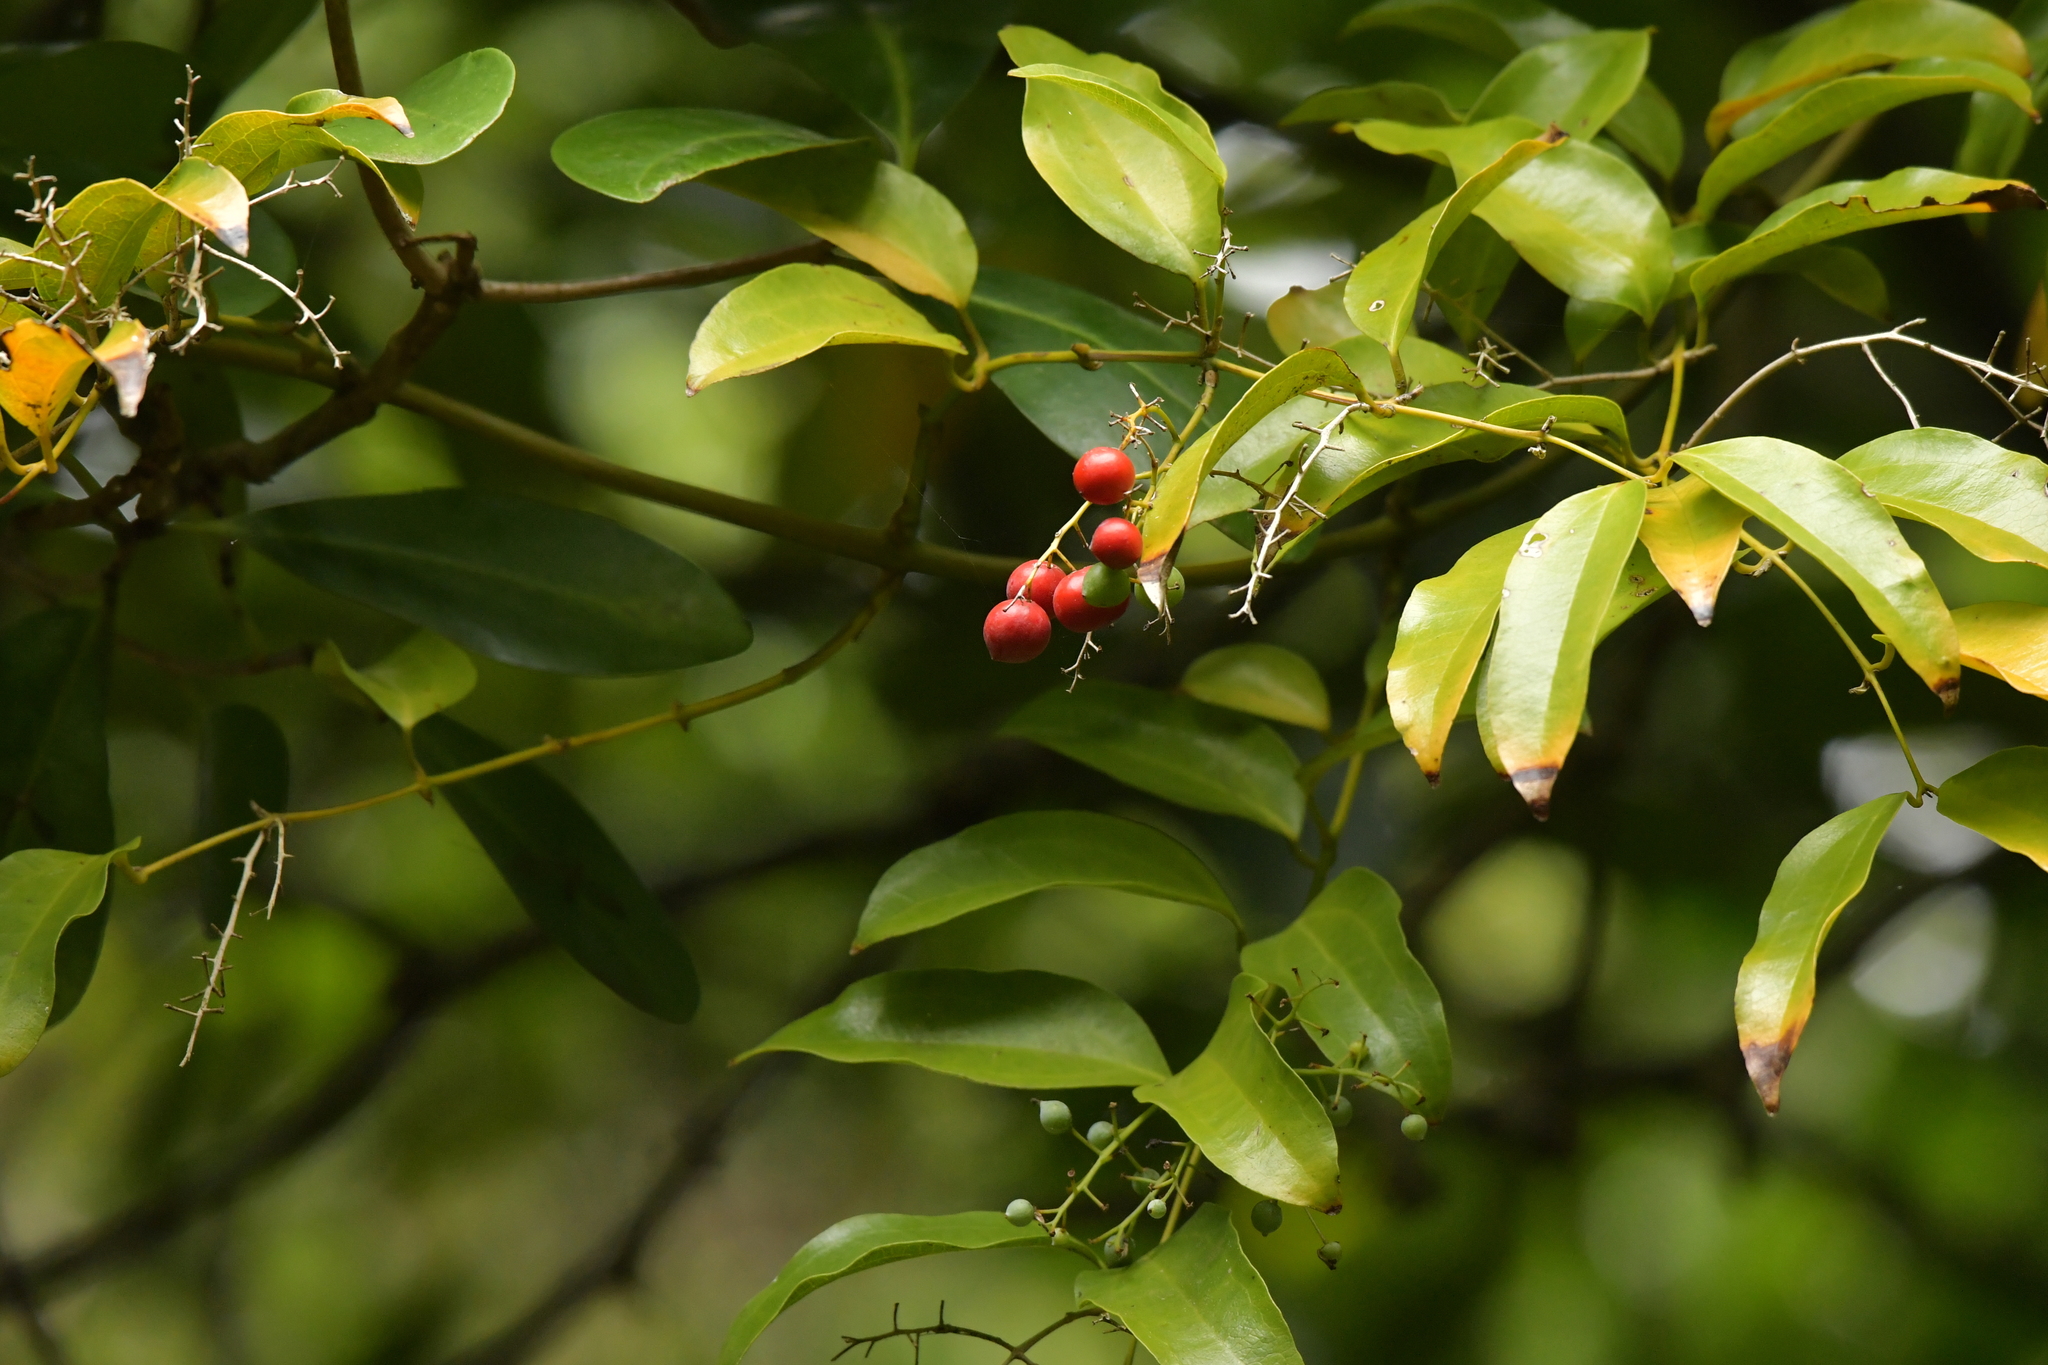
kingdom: Plantae
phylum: Tracheophyta
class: Liliopsida
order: Liliales
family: Ripogonaceae
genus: Ripogonum
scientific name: Ripogonum scandens
